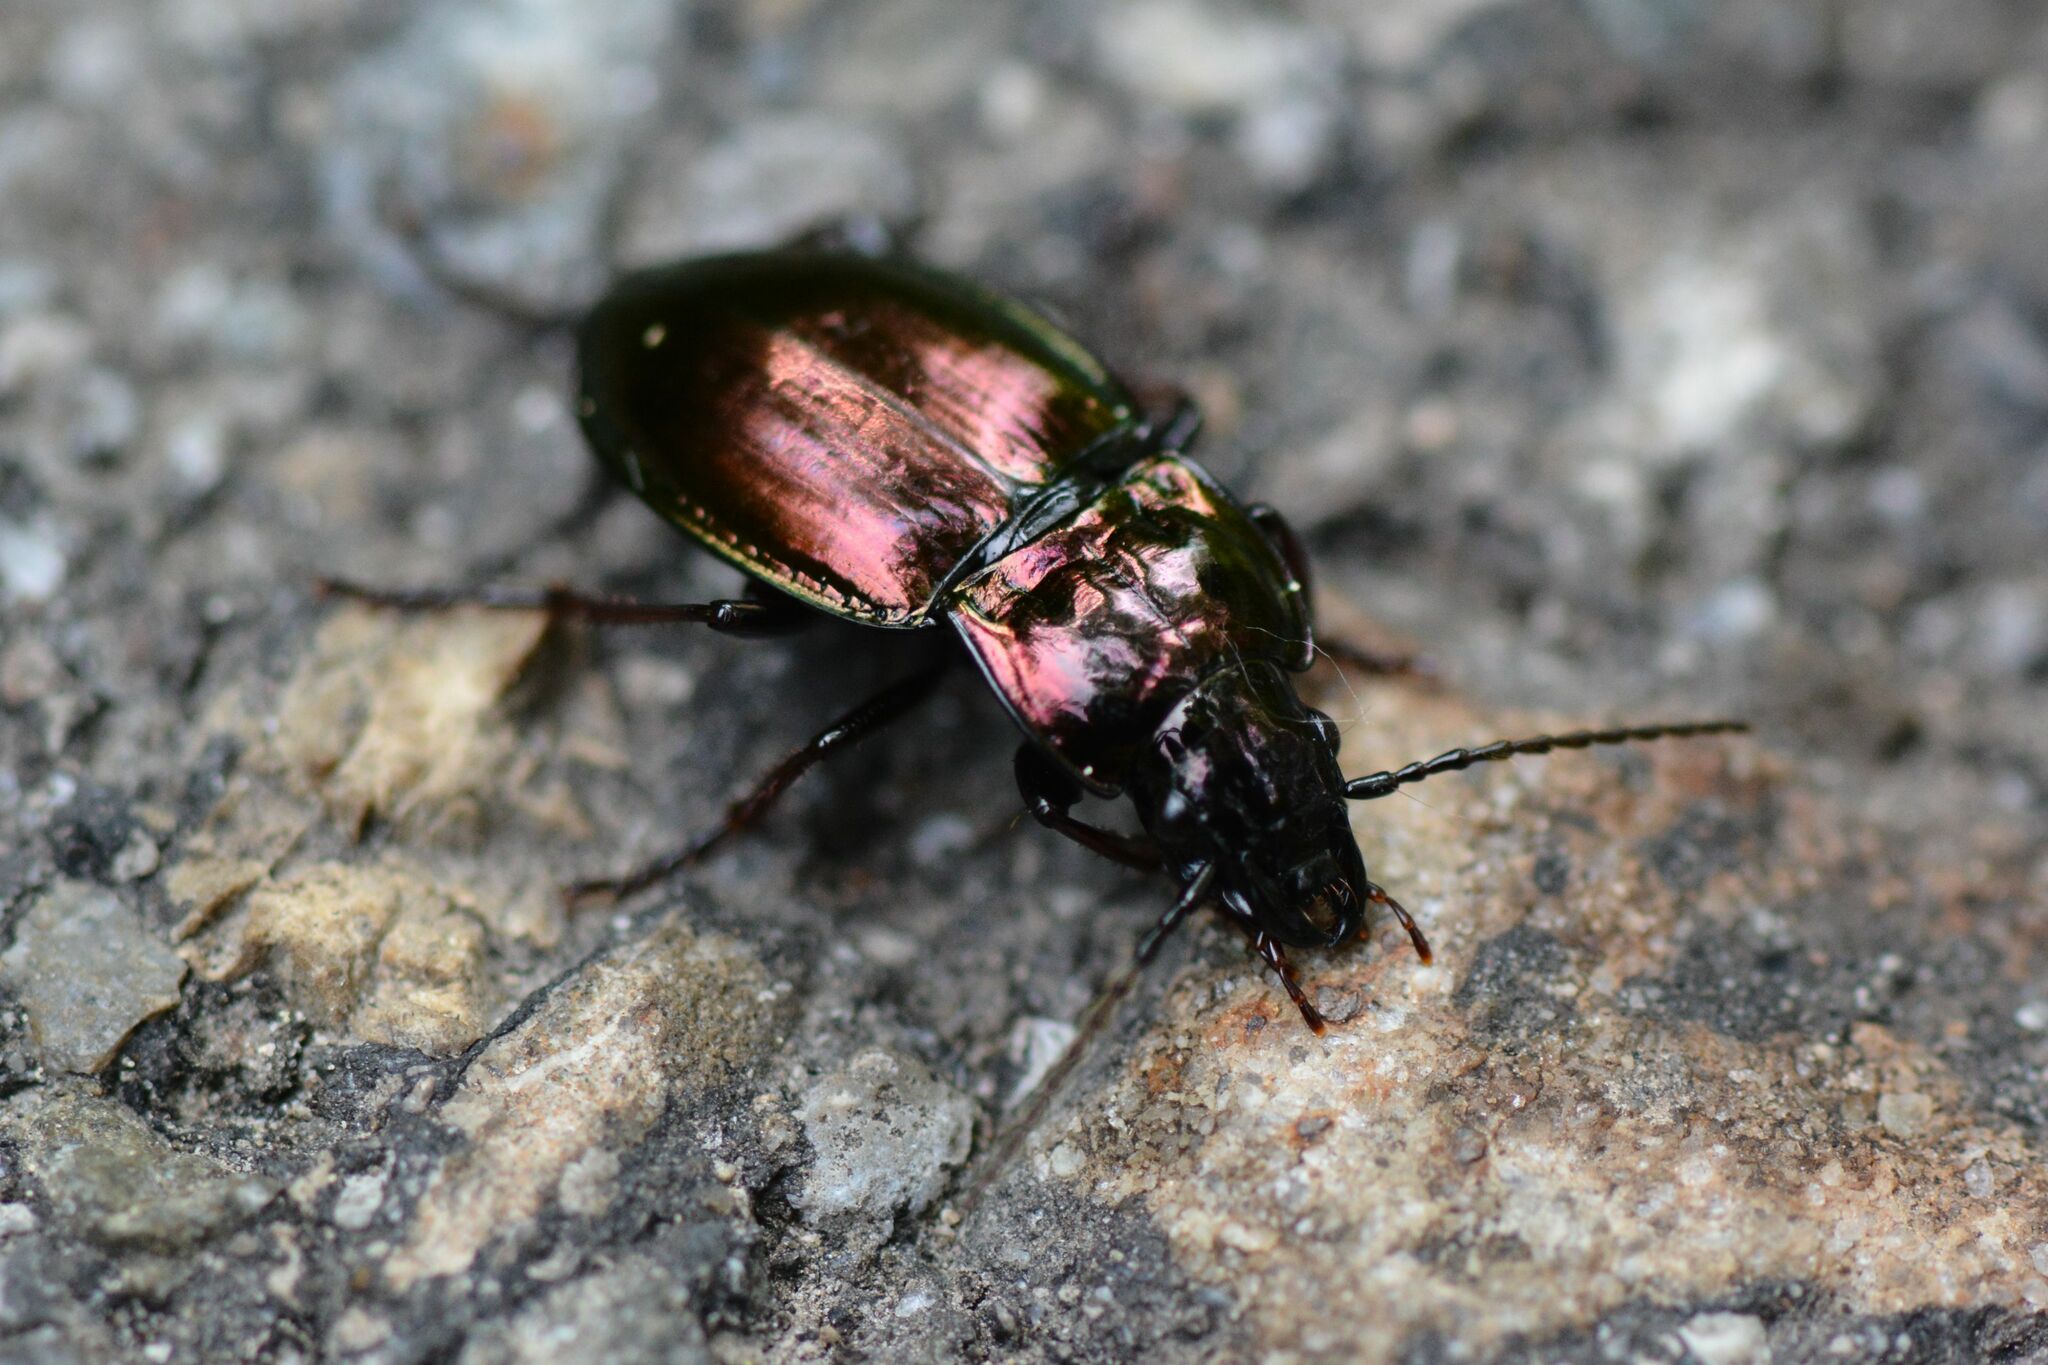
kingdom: Animalia
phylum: Arthropoda
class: Insecta
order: Coleoptera
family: Carabidae
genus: Pterostichus
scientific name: Pterostichus burmeisteri
